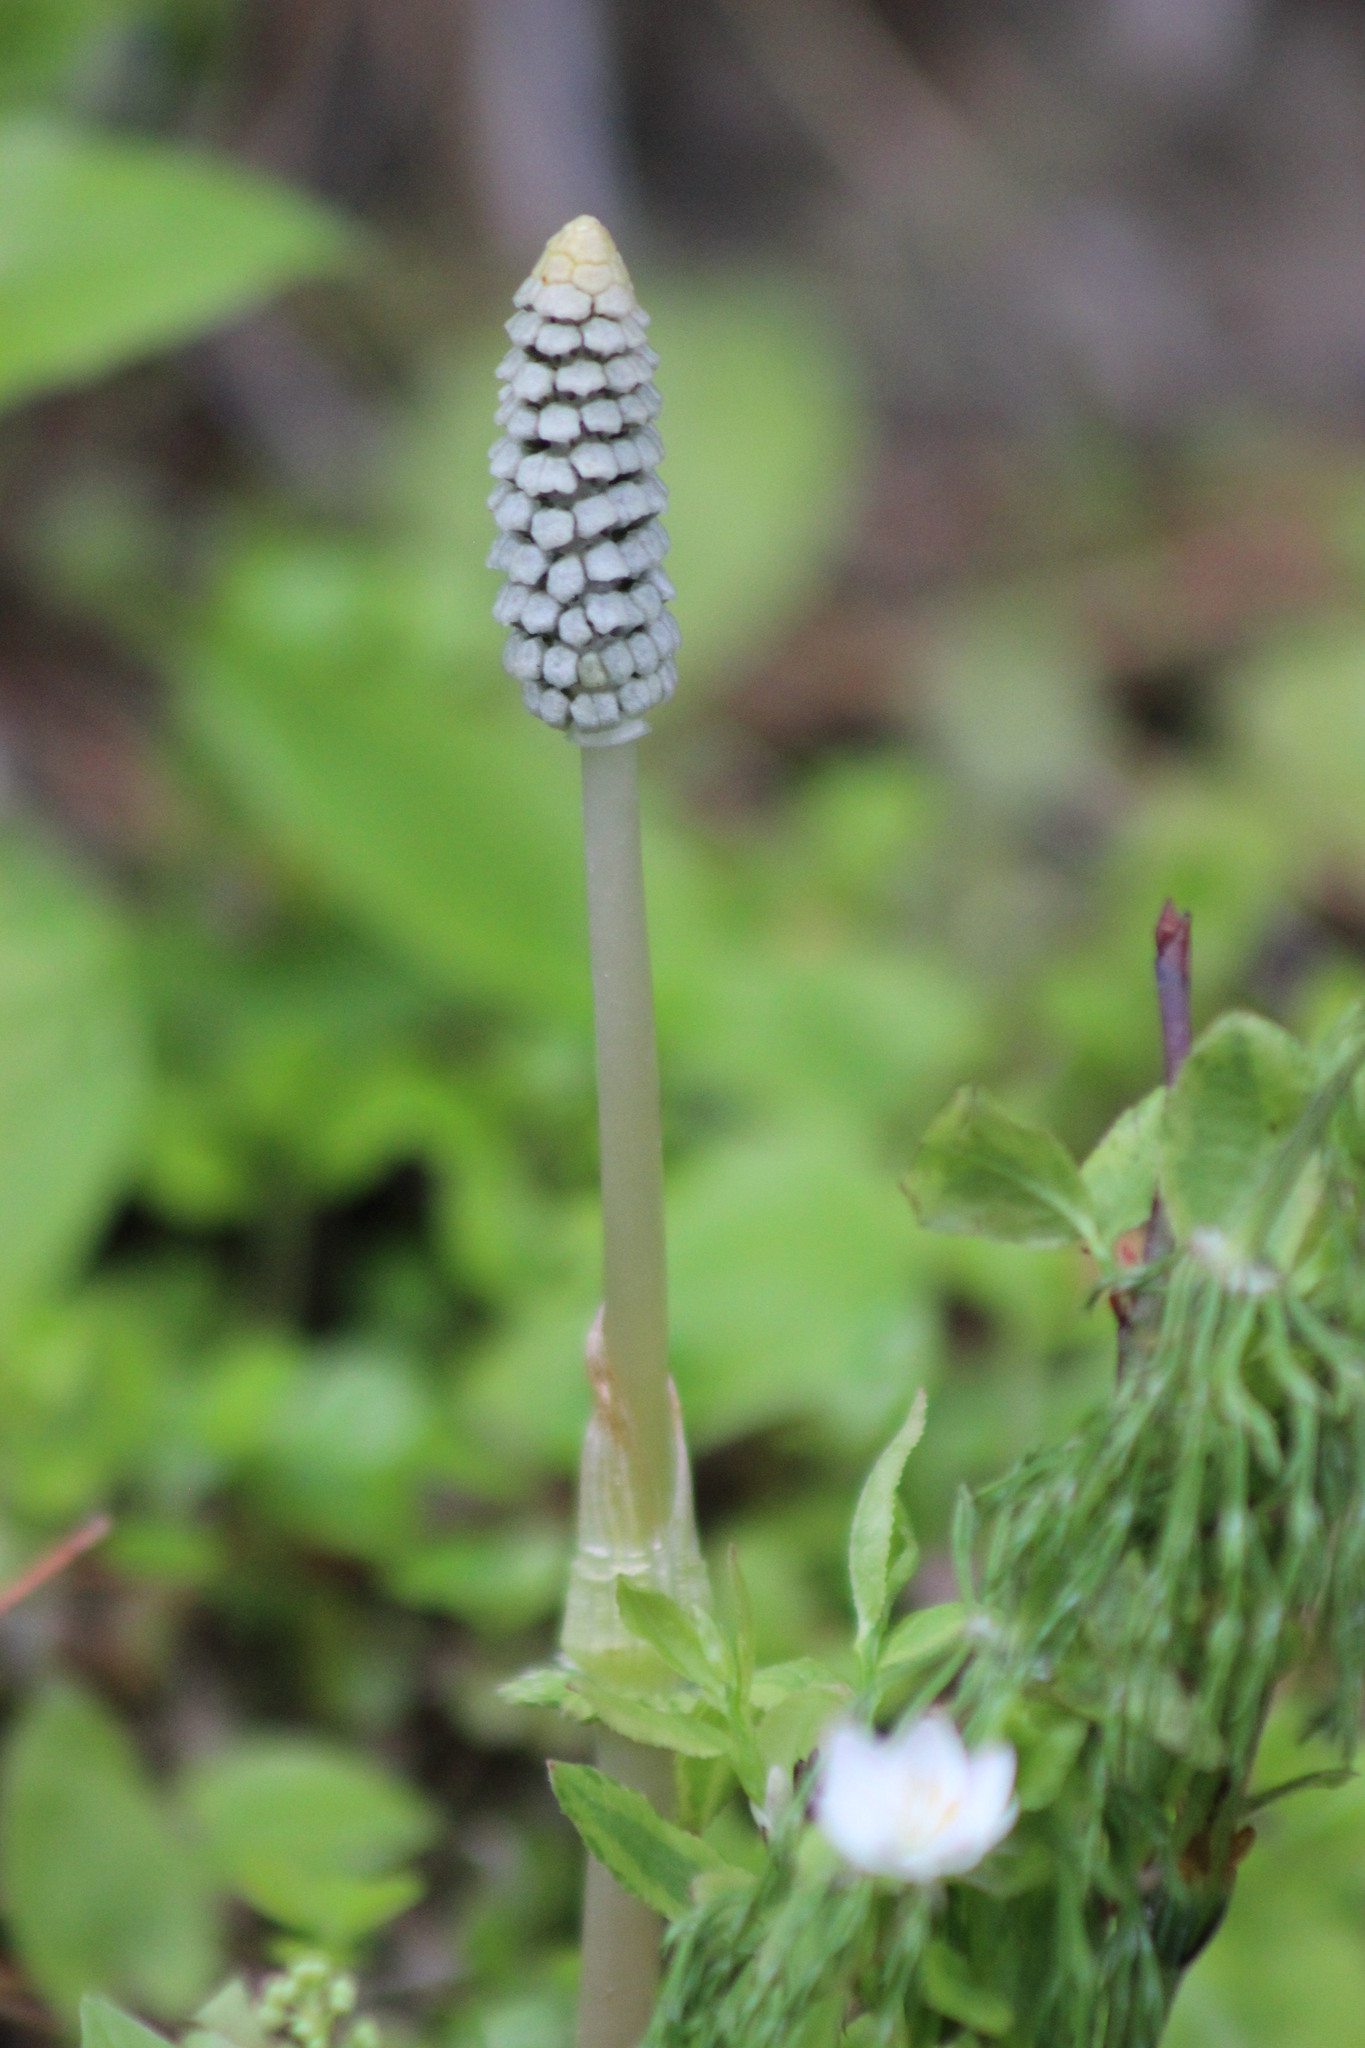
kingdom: Plantae
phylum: Tracheophyta
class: Polypodiopsida
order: Equisetales
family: Equisetaceae
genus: Equisetum
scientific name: Equisetum sylvaticum
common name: Wood horsetail
